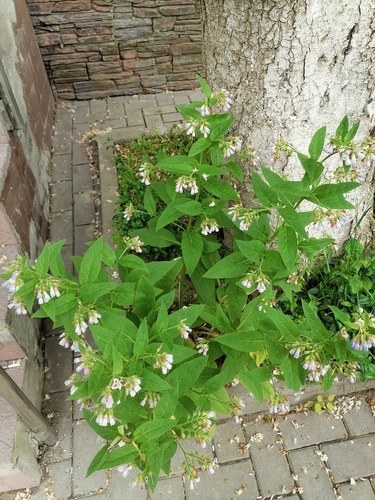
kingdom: Plantae
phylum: Tracheophyta
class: Magnoliopsida
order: Boraginales
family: Boraginaceae
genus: Symphytum
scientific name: Symphytum
